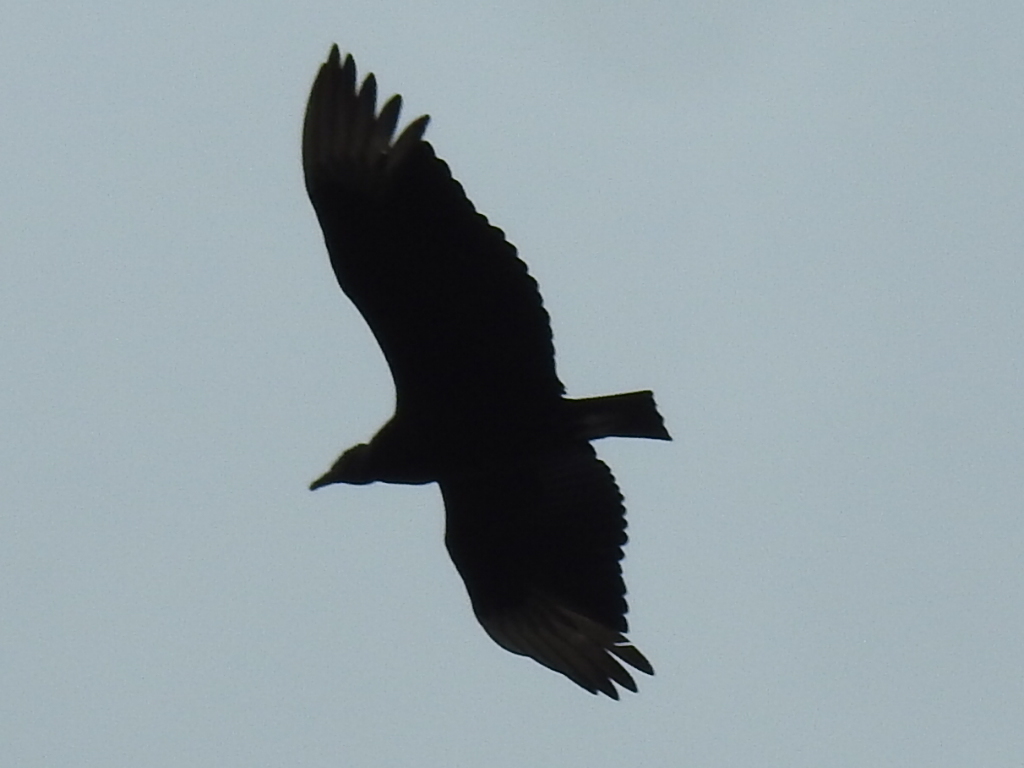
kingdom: Animalia
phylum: Chordata
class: Aves
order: Accipitriformes
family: Cathartidae
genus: Coragyps
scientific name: Coragyps atratus
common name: Black vulture
